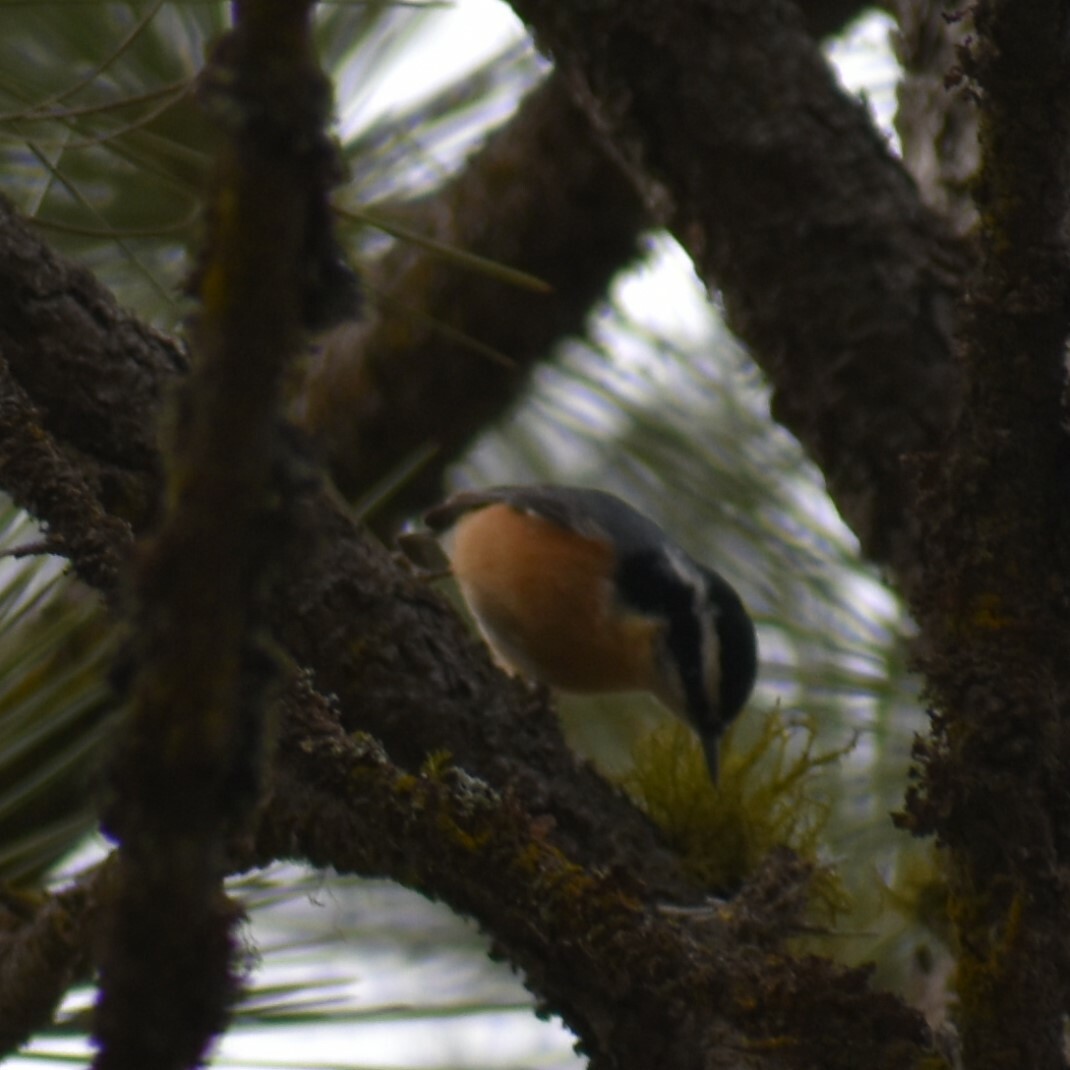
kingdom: Animalia
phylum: Chordata
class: Aves
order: Passeriformes
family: Sittidae
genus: Sitta
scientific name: Sitta canadensis
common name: Red-breasted nuthatch
